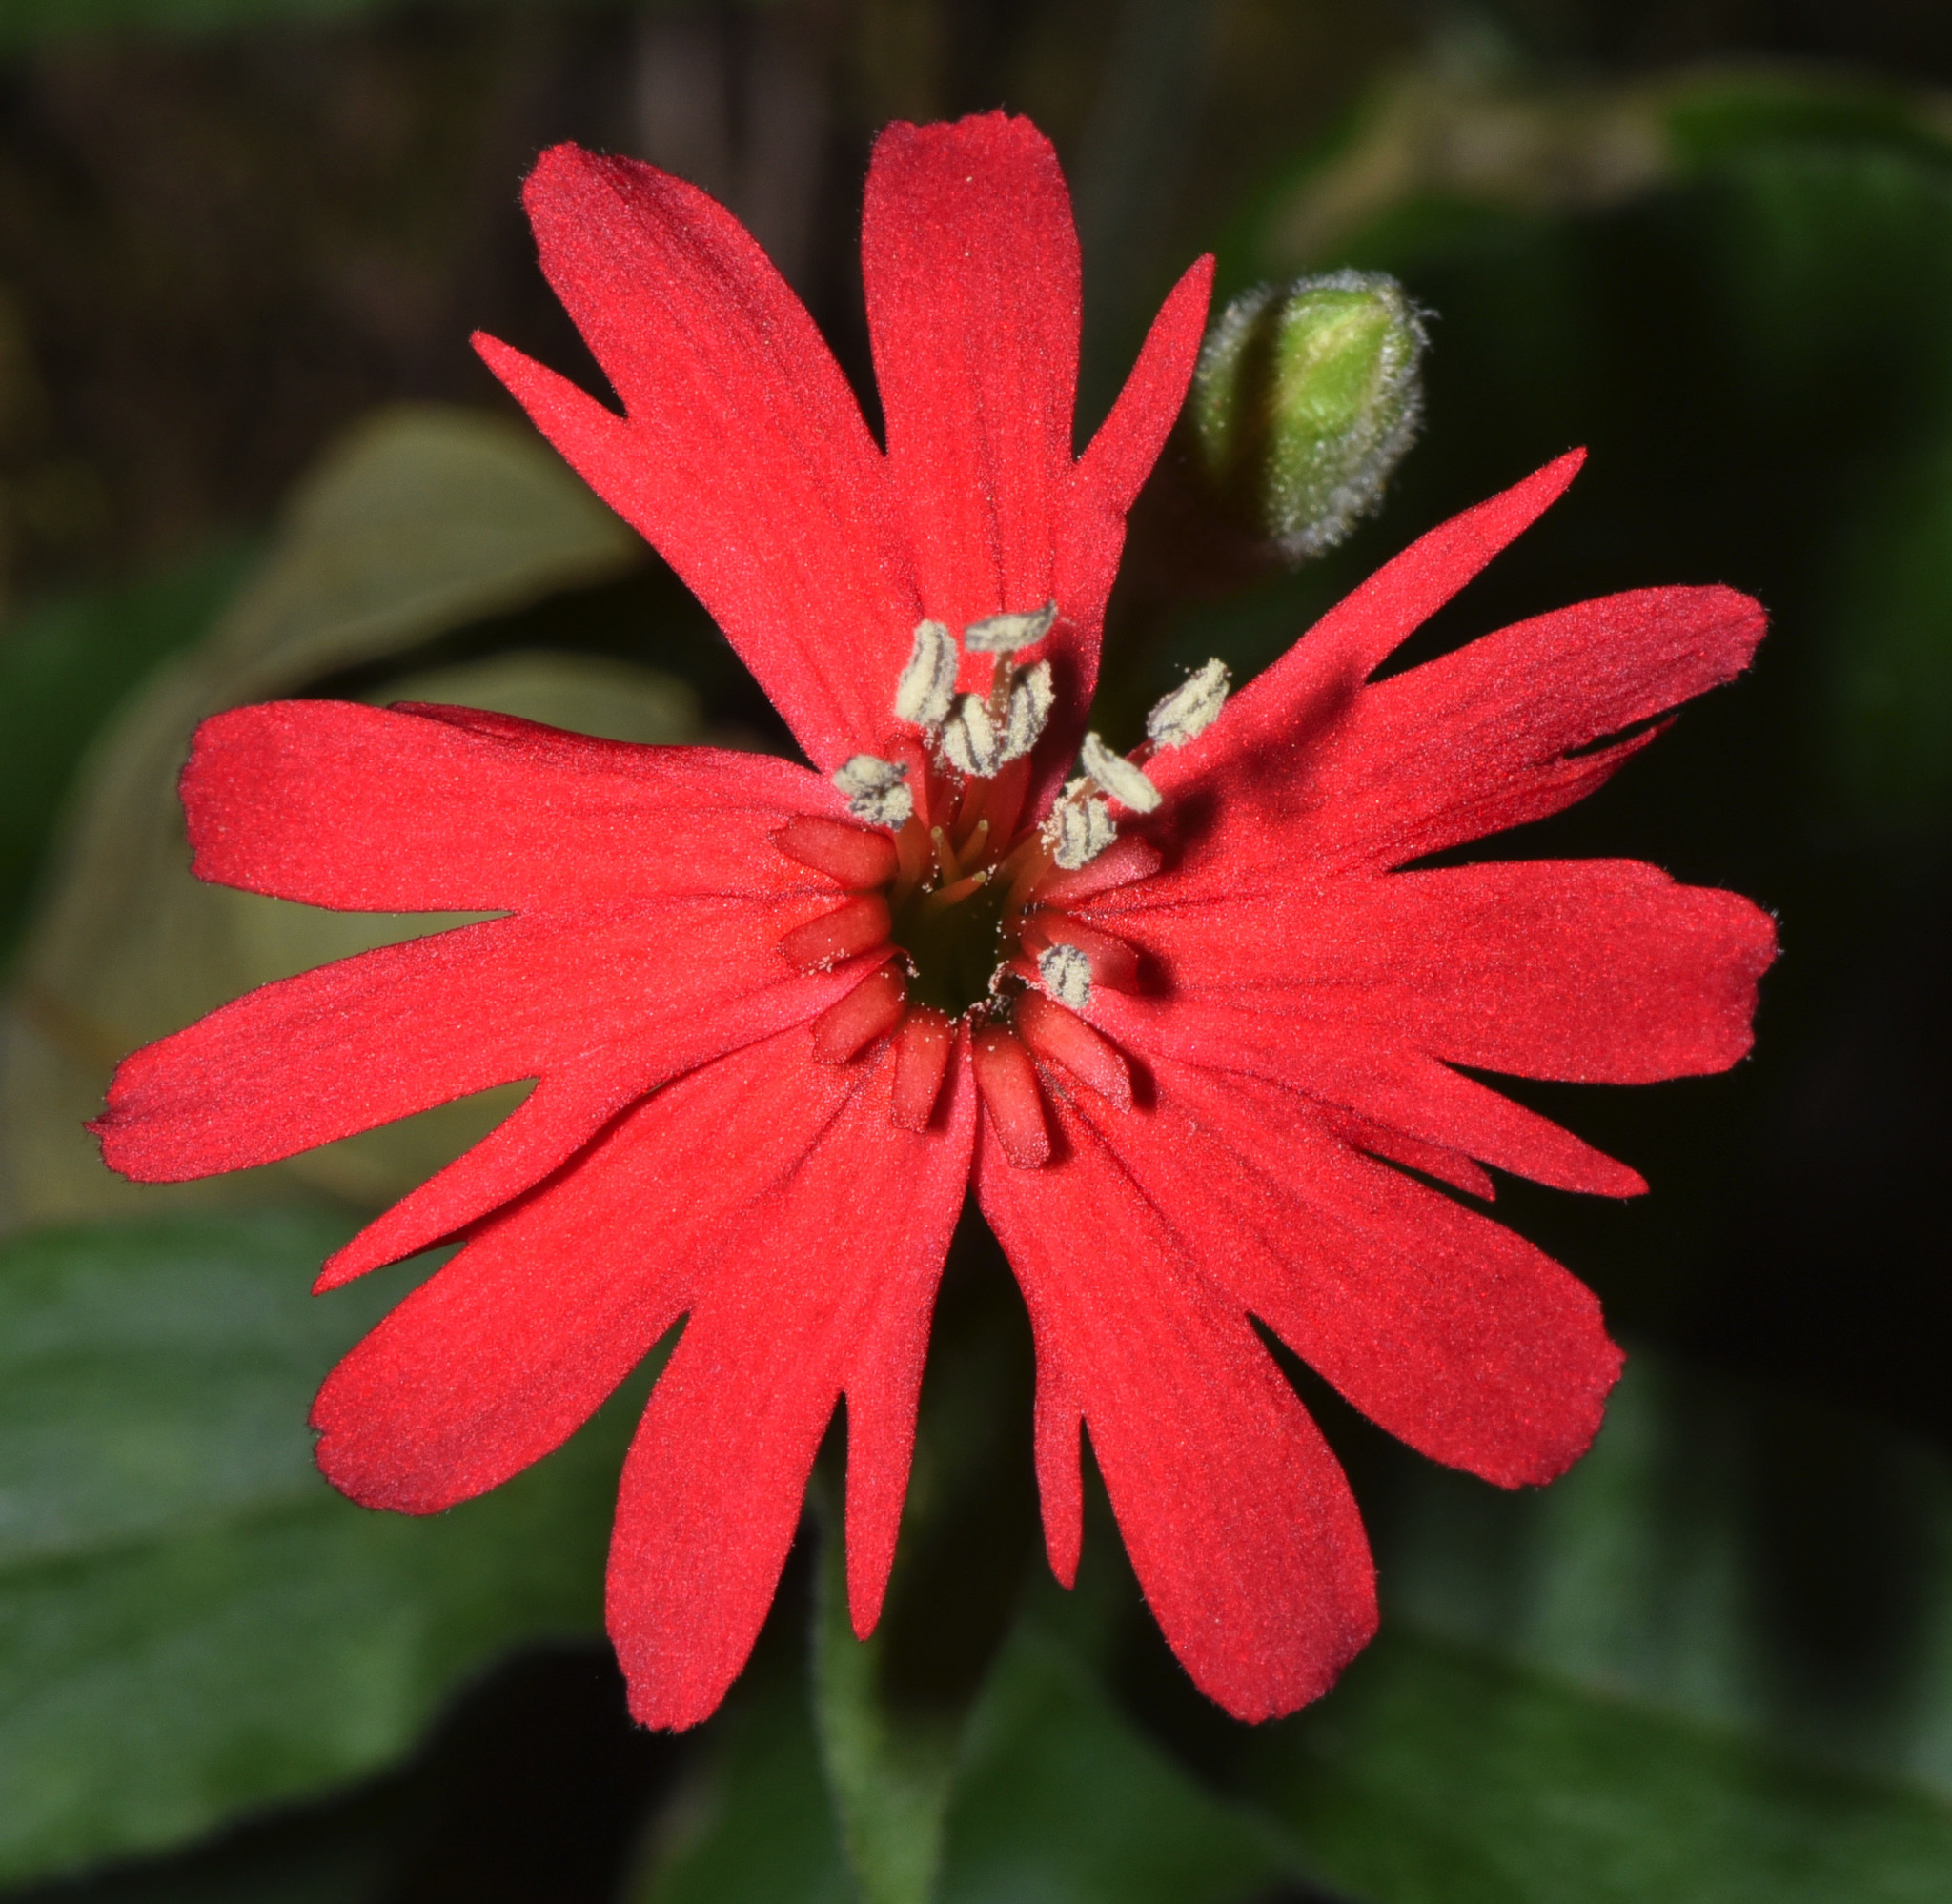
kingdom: Plantae
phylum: Tracheophyta
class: Magnoliopsida
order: Caryophyllales
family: Caryophyllaceae
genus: Silene
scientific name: Silene laciniata
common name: Indian-pink
